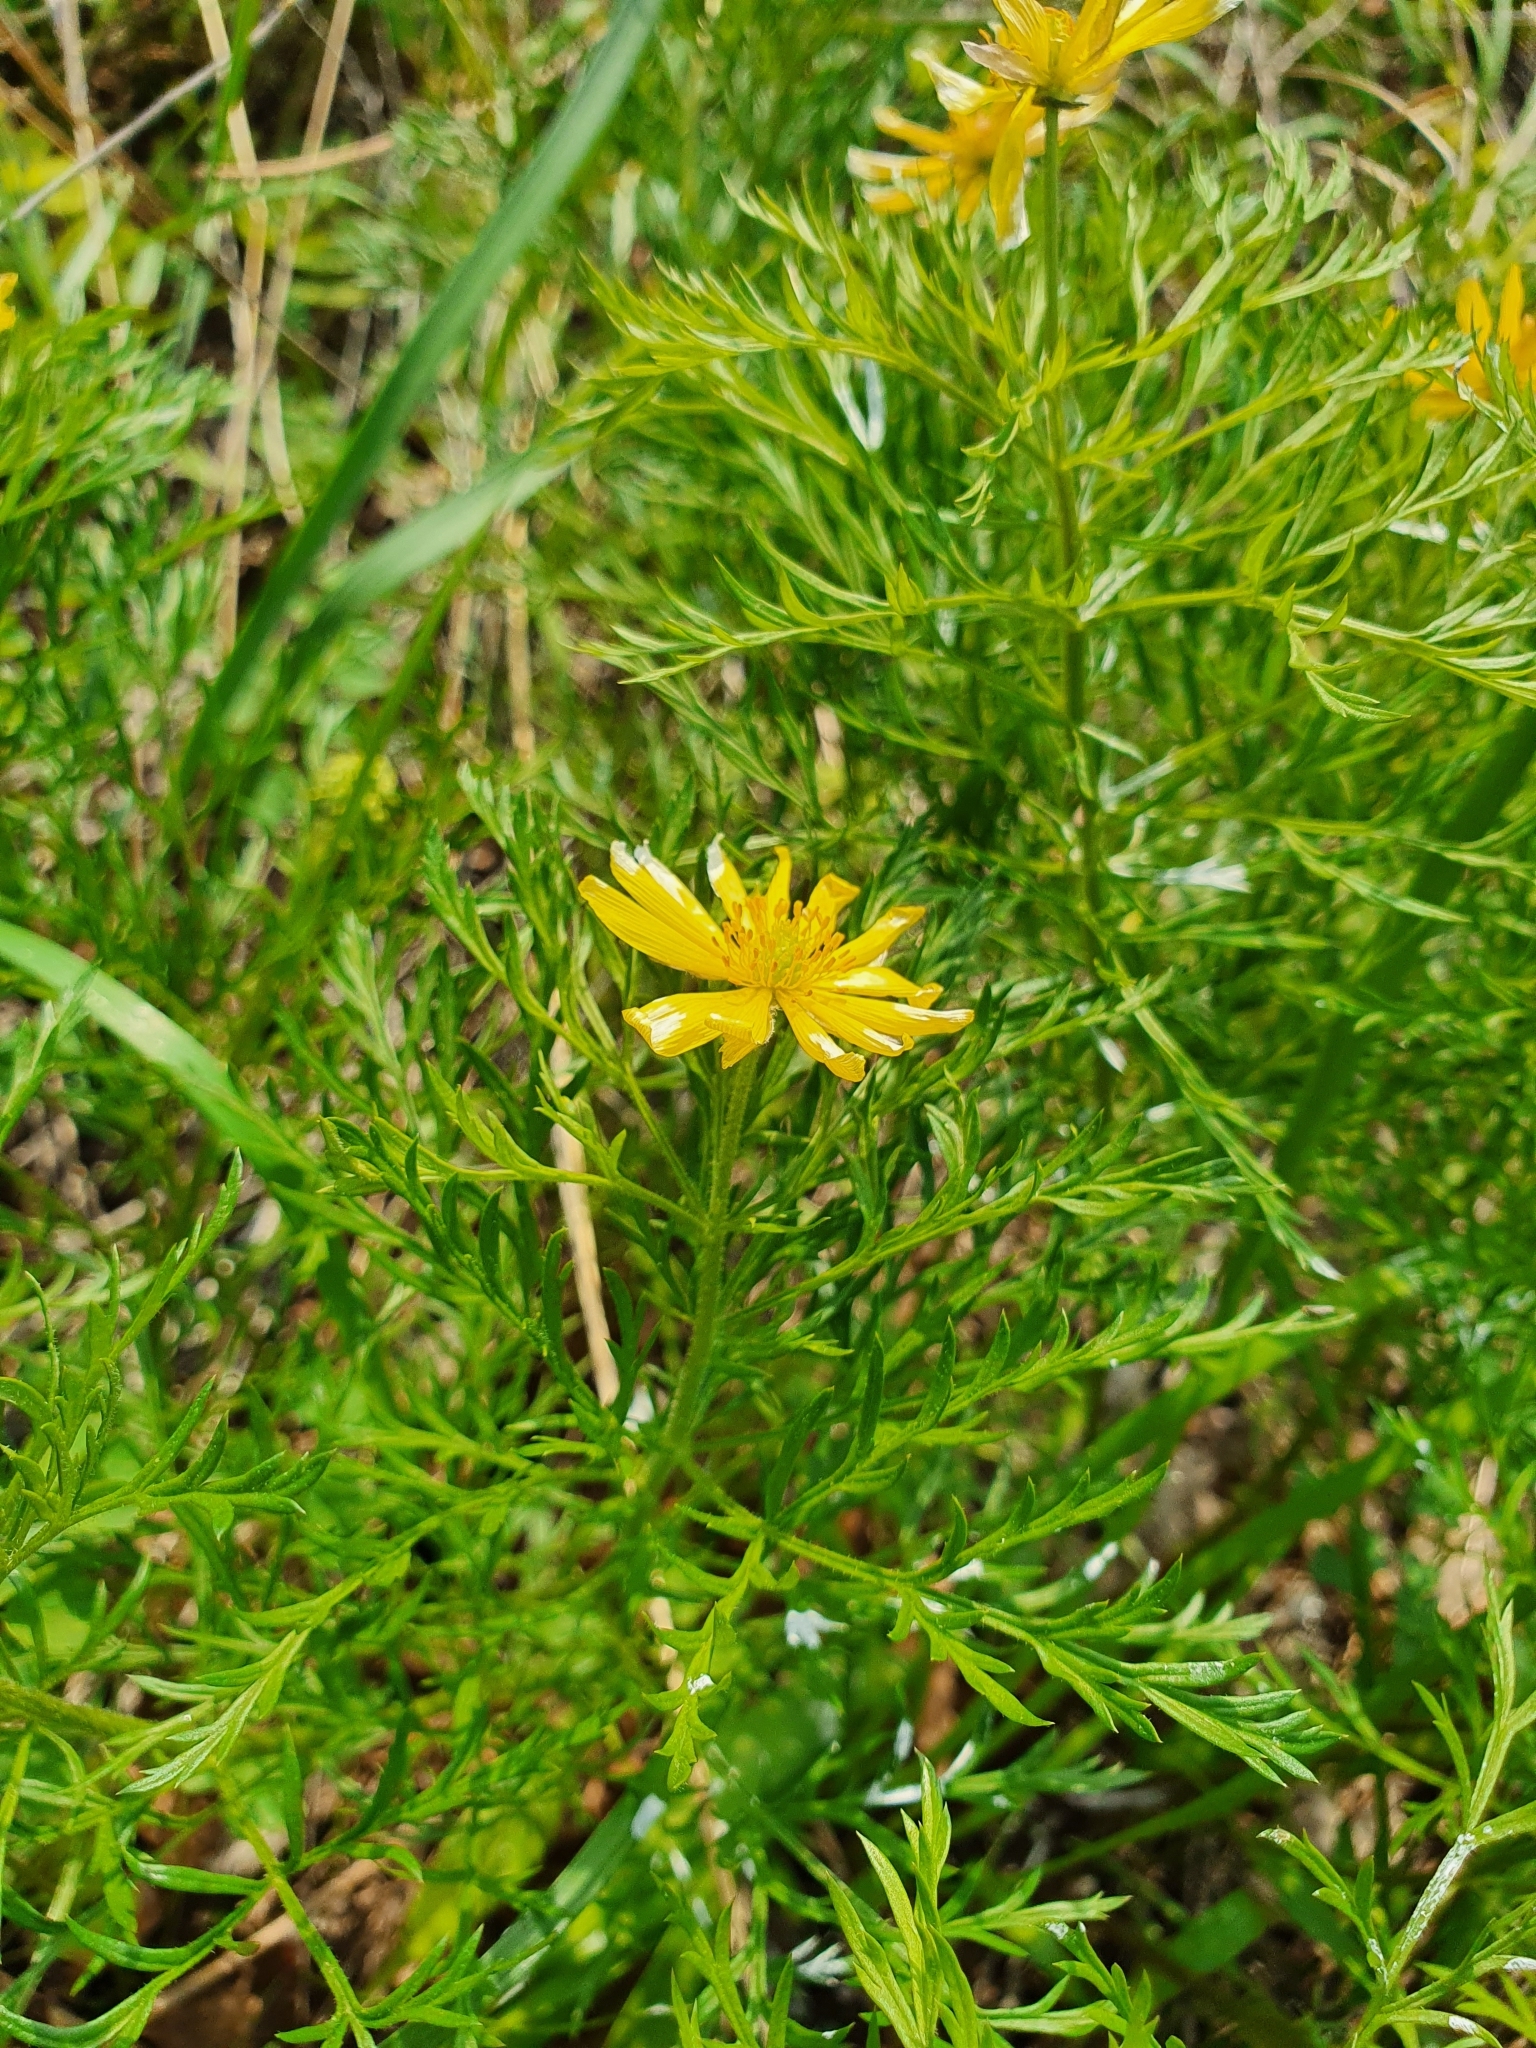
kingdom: Plantae
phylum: Tracheophyta
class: Magnoliopsida
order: Ranunculales
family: Ranunculaceae
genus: Adonis
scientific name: Adonis volgensis
